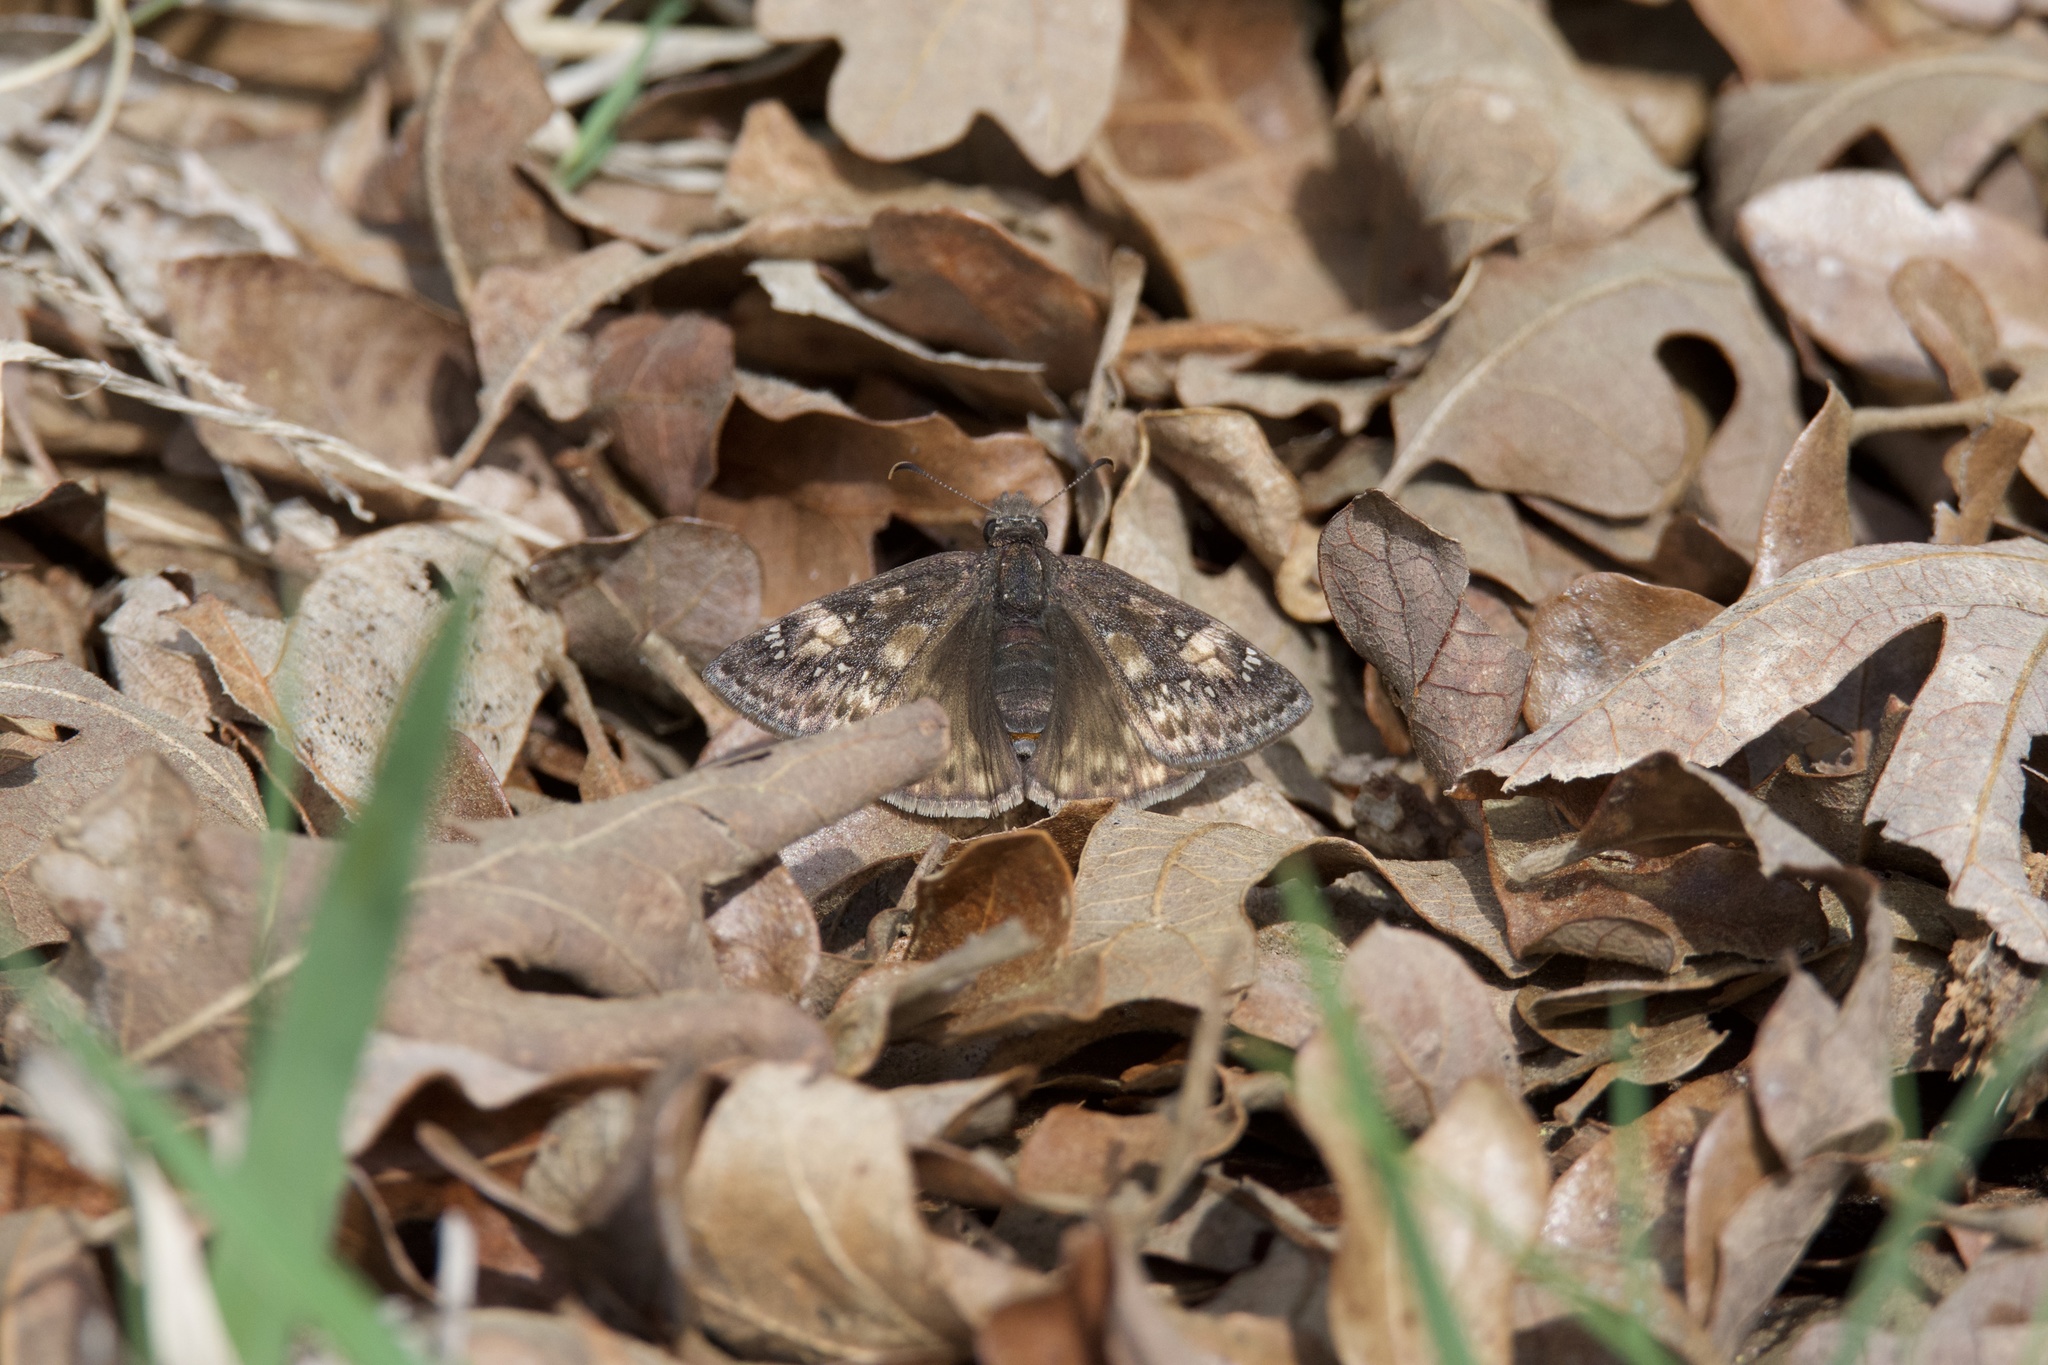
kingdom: Animalia
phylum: Arthropoda
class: Insecta
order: Lepidoptera
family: Hesperiidae
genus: Erynnis
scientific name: Erynnis juvenalis
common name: Juvenal's duskywing
